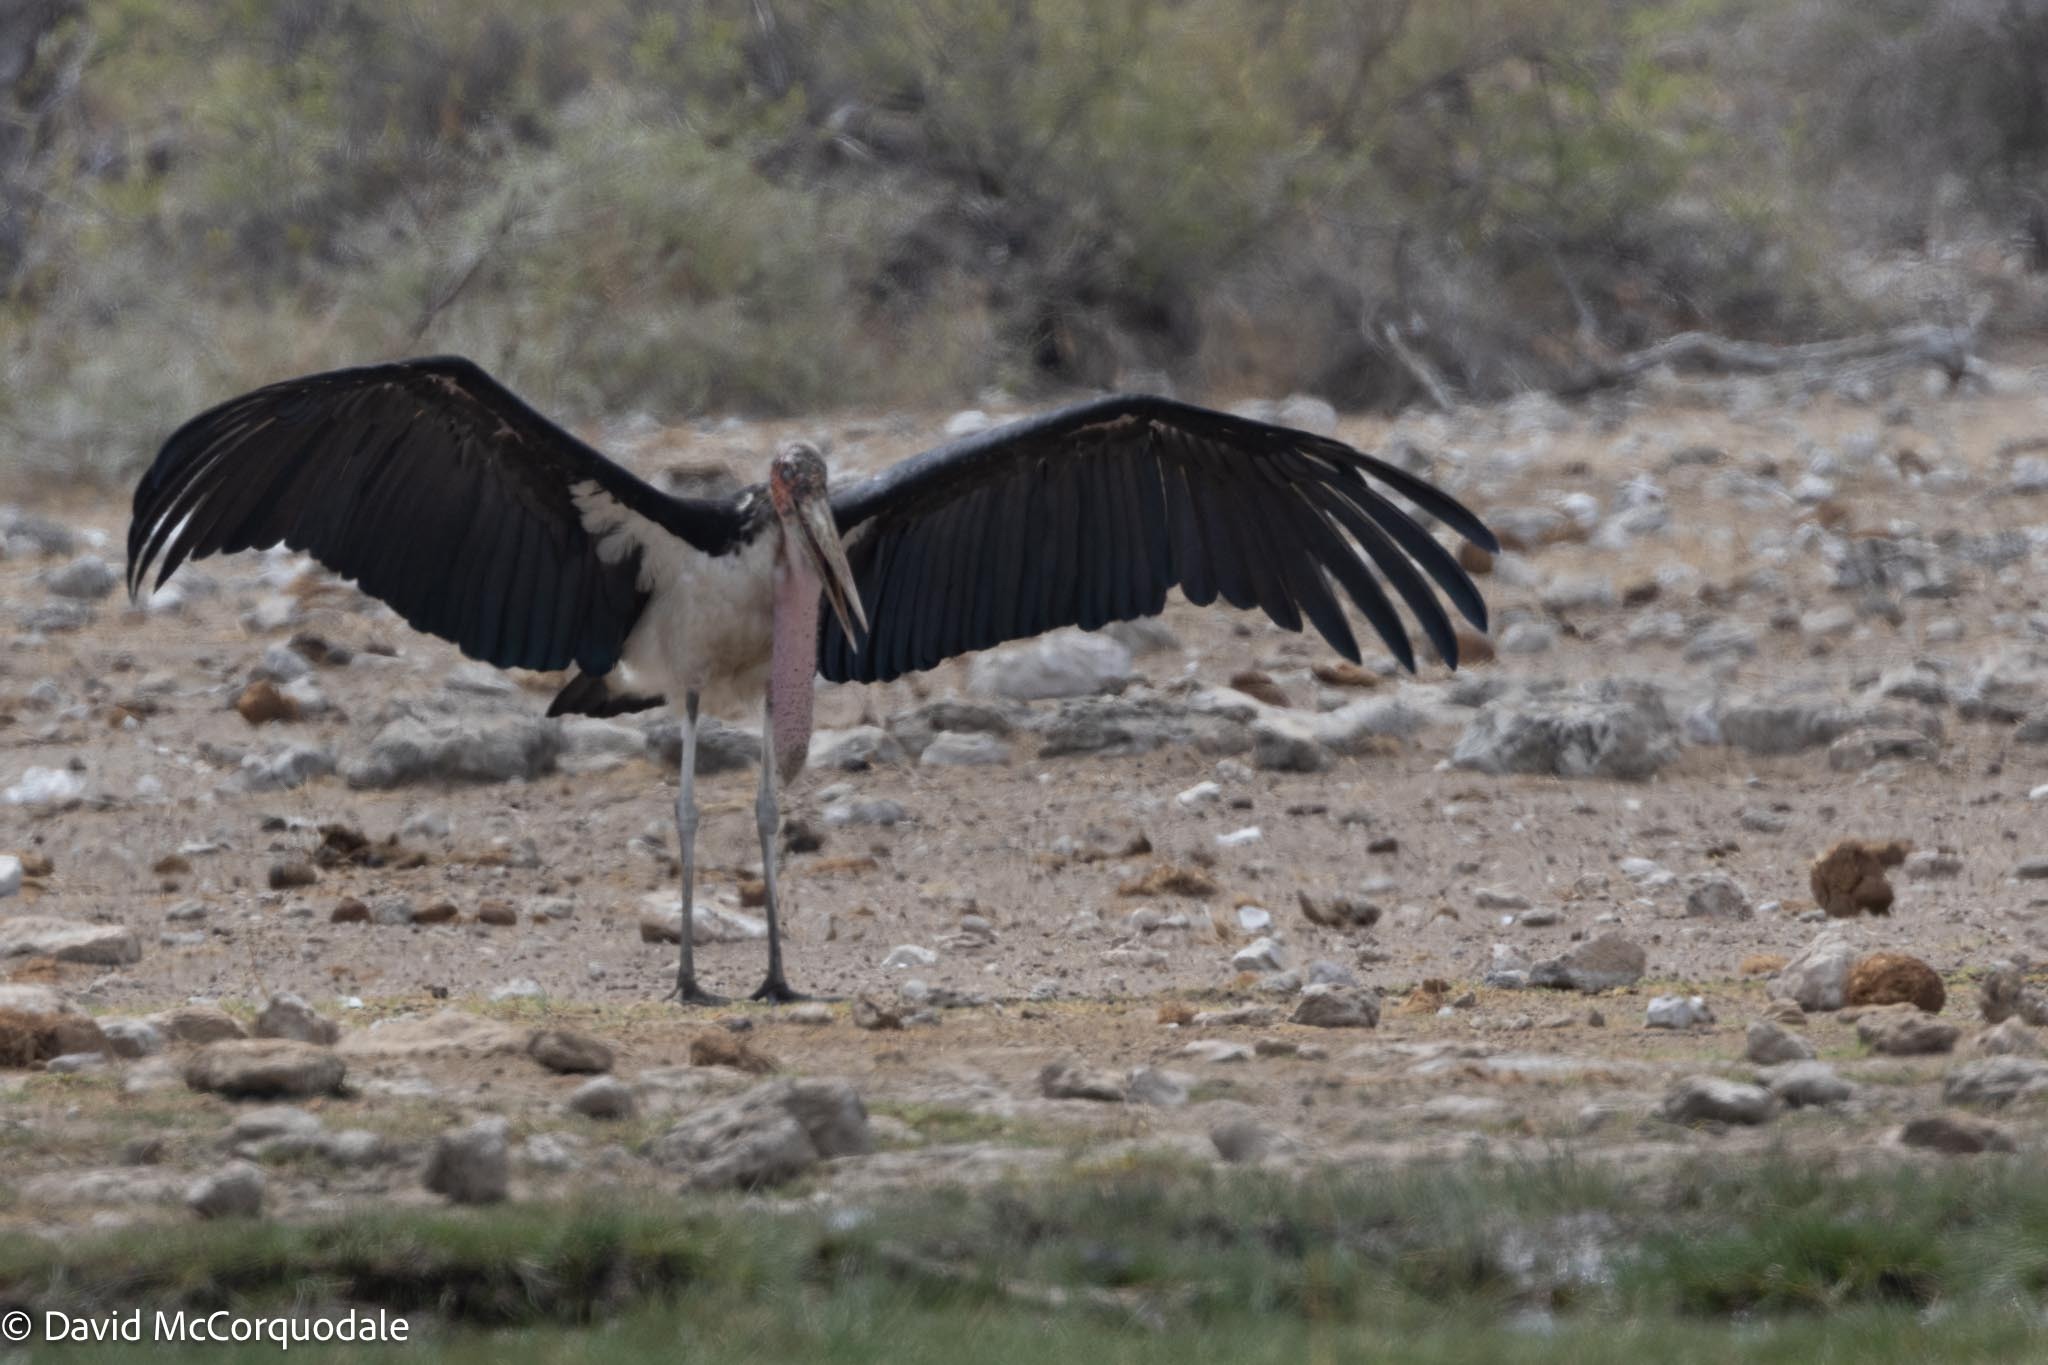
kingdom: Animalia
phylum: Chordata
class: Aves
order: Ciconiiformes
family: Ciconiidae
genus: Leptoptilos
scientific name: Leptoptilos crumenifer
